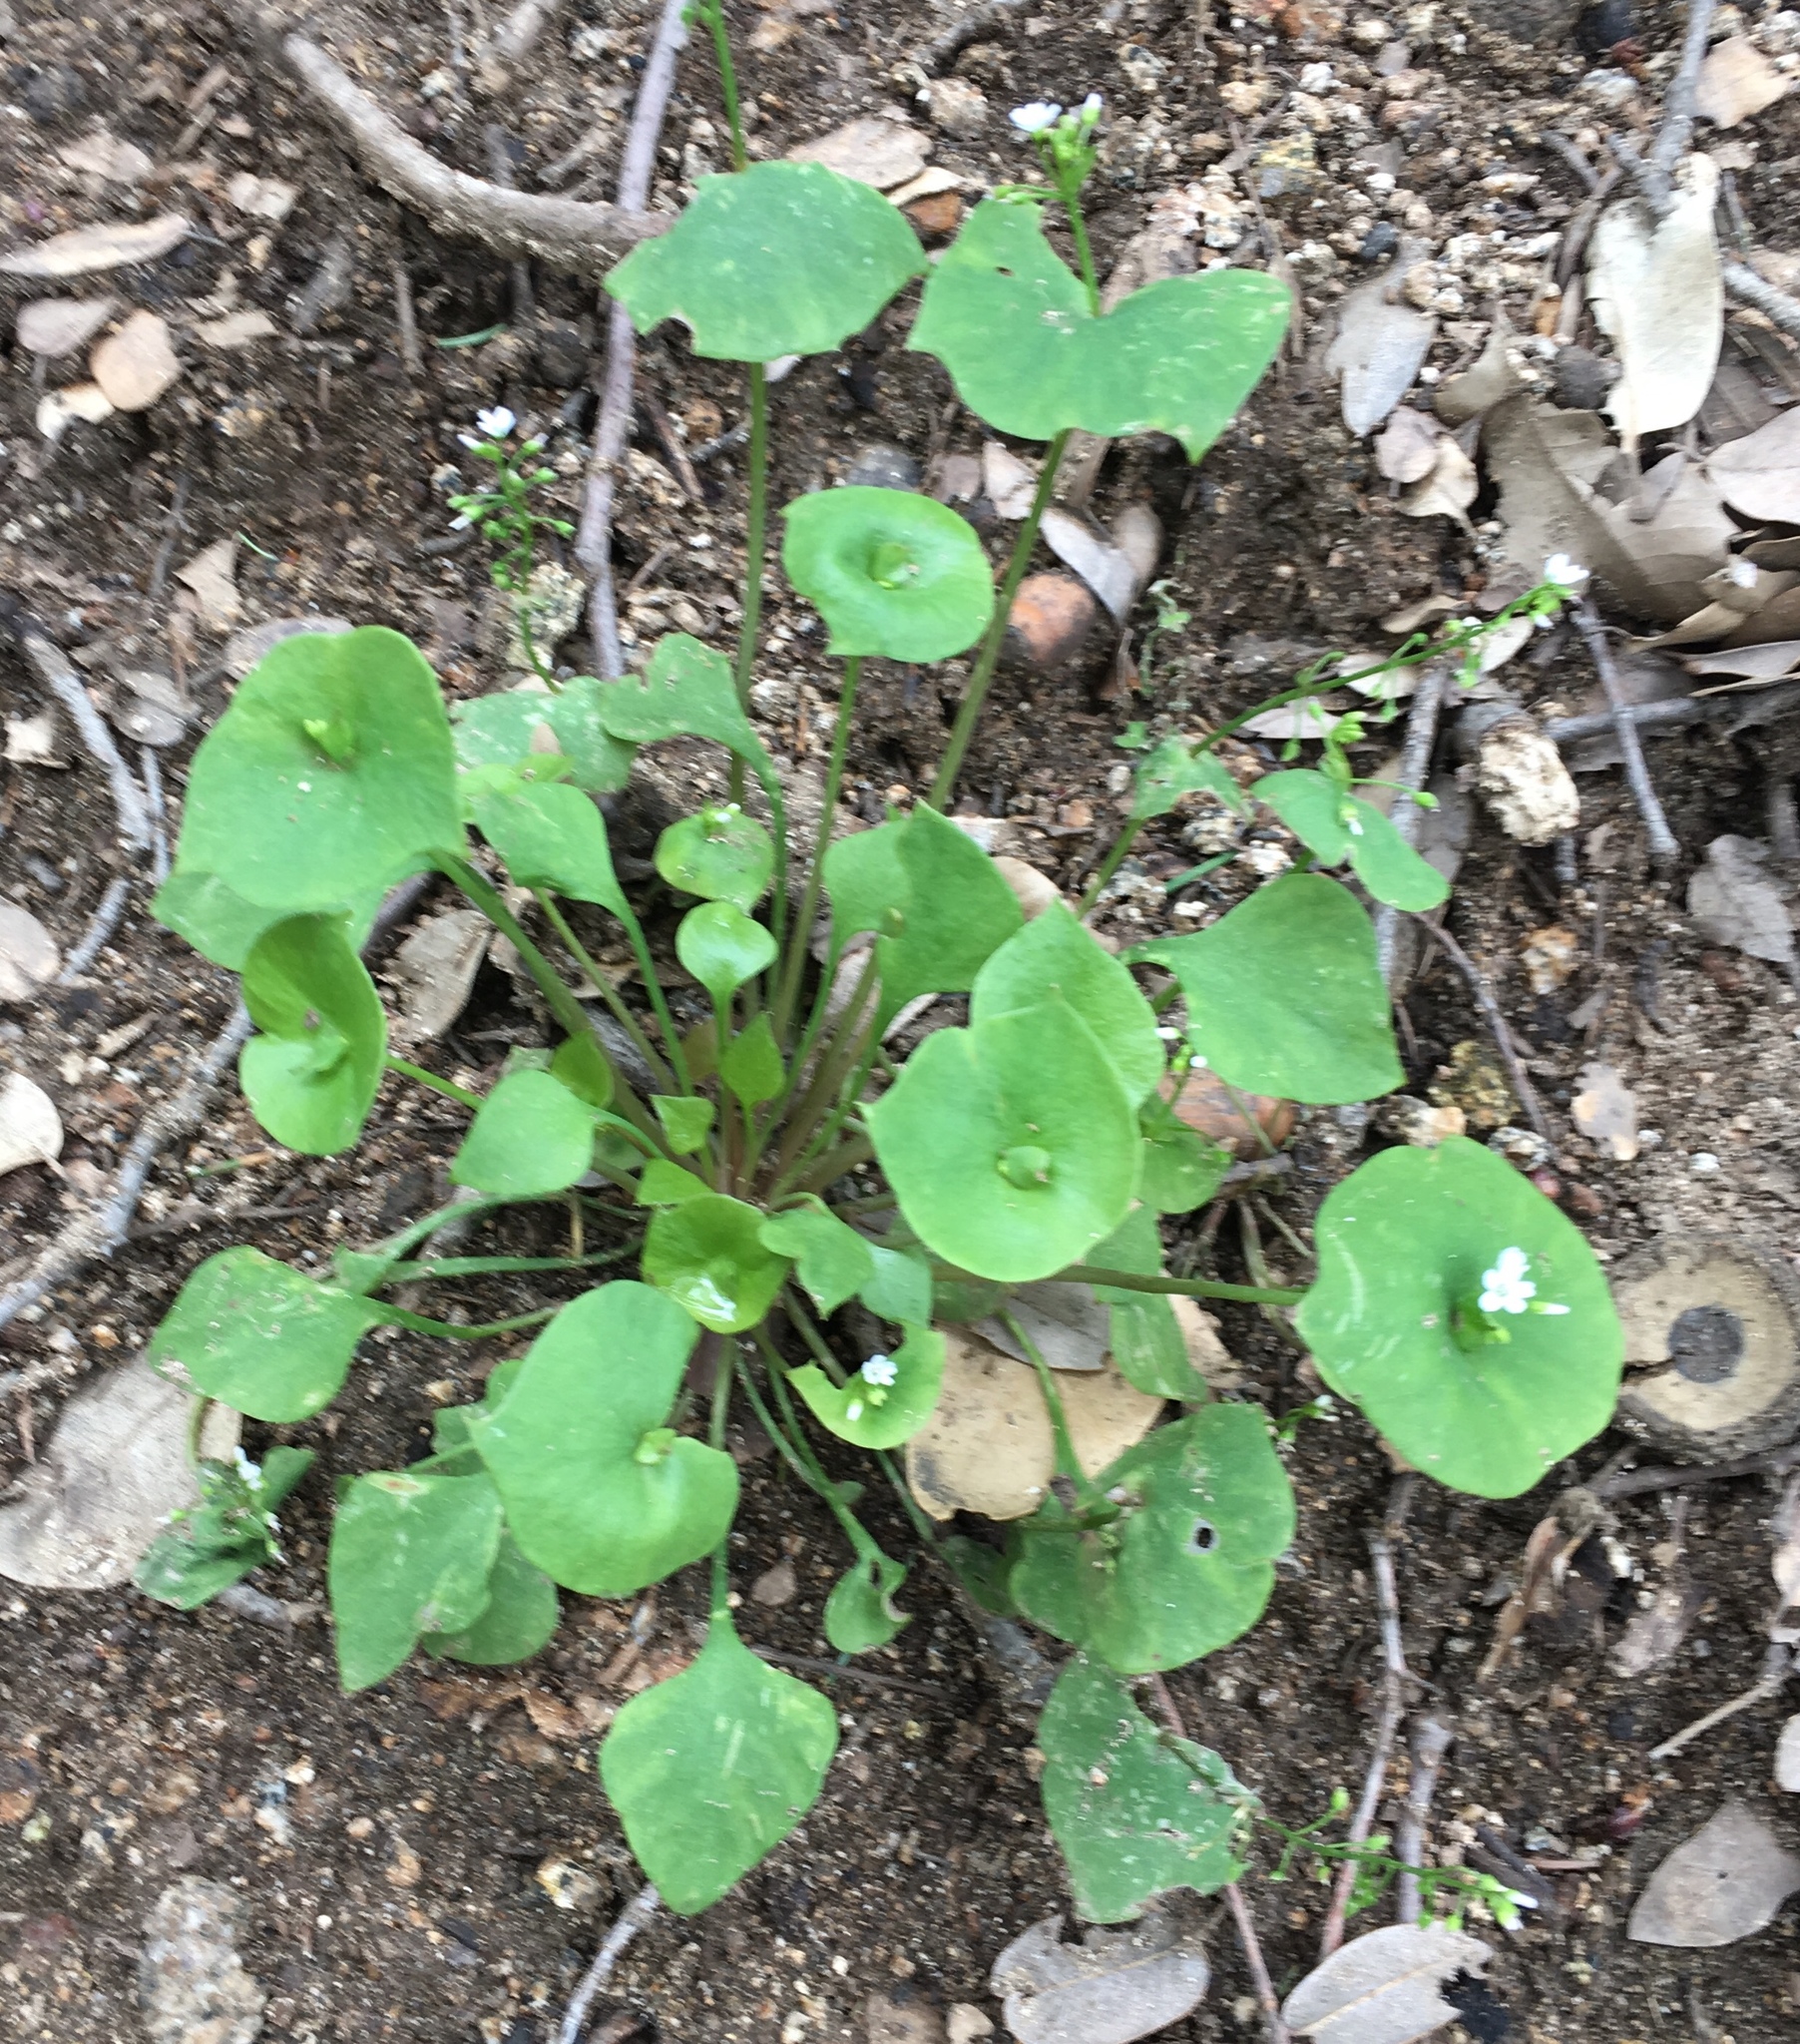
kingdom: Plantae
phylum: Tracheophyta
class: Magnoliopsida
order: Caryophyllales
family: Montiaceae
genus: Claytonia
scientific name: Claytonia perfoliata
